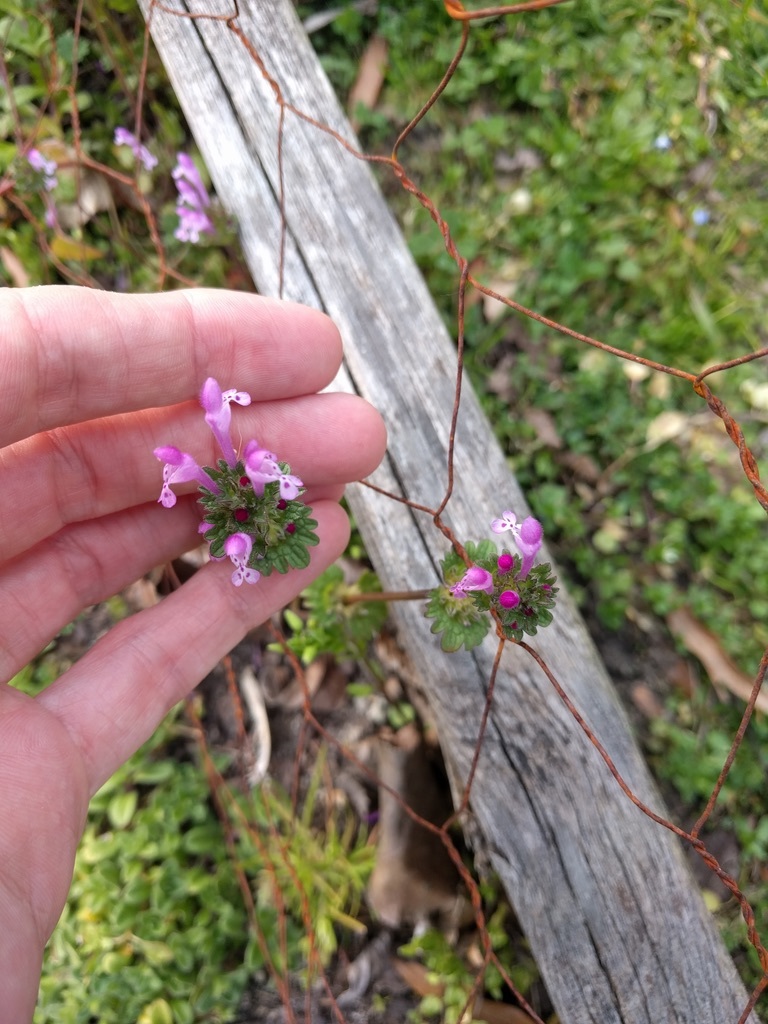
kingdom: Plantae
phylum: Tracheophyta
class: Magnoliopsida
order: Lamiales
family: Lamiaceae
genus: Lamium
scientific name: Lamium amplexicaule
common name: Henbit dead-nettle
